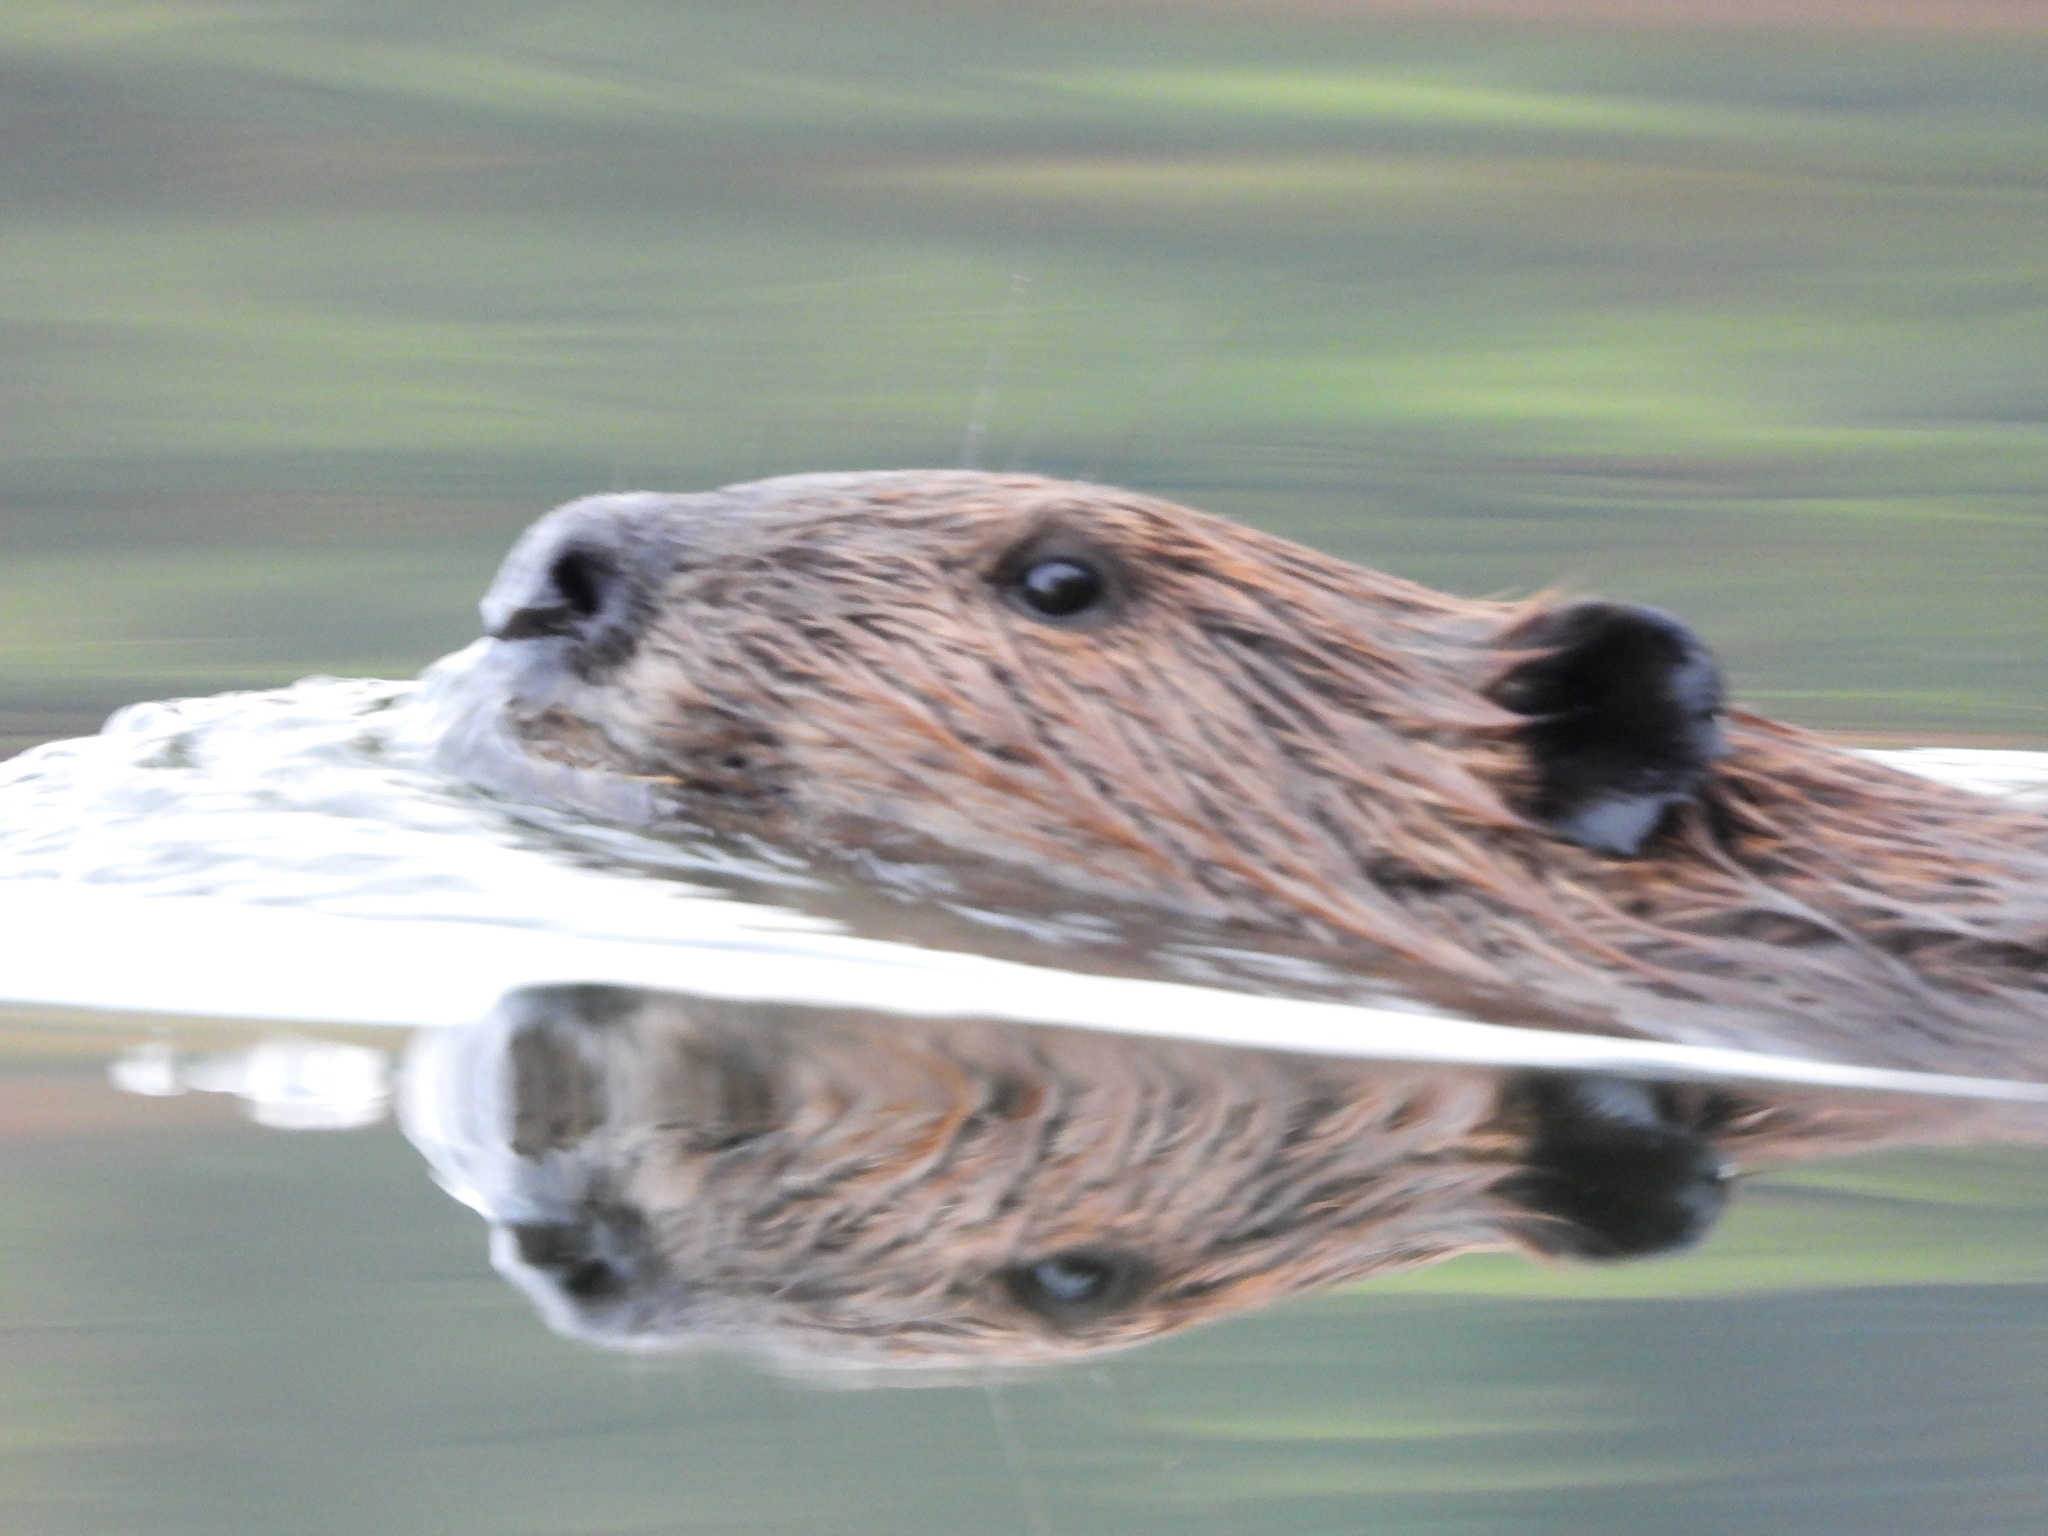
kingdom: Animalia
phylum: Chordata
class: Mammalia
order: Rodentia
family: Castoridae
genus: Castor
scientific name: Castor canadensis
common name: American beaver
